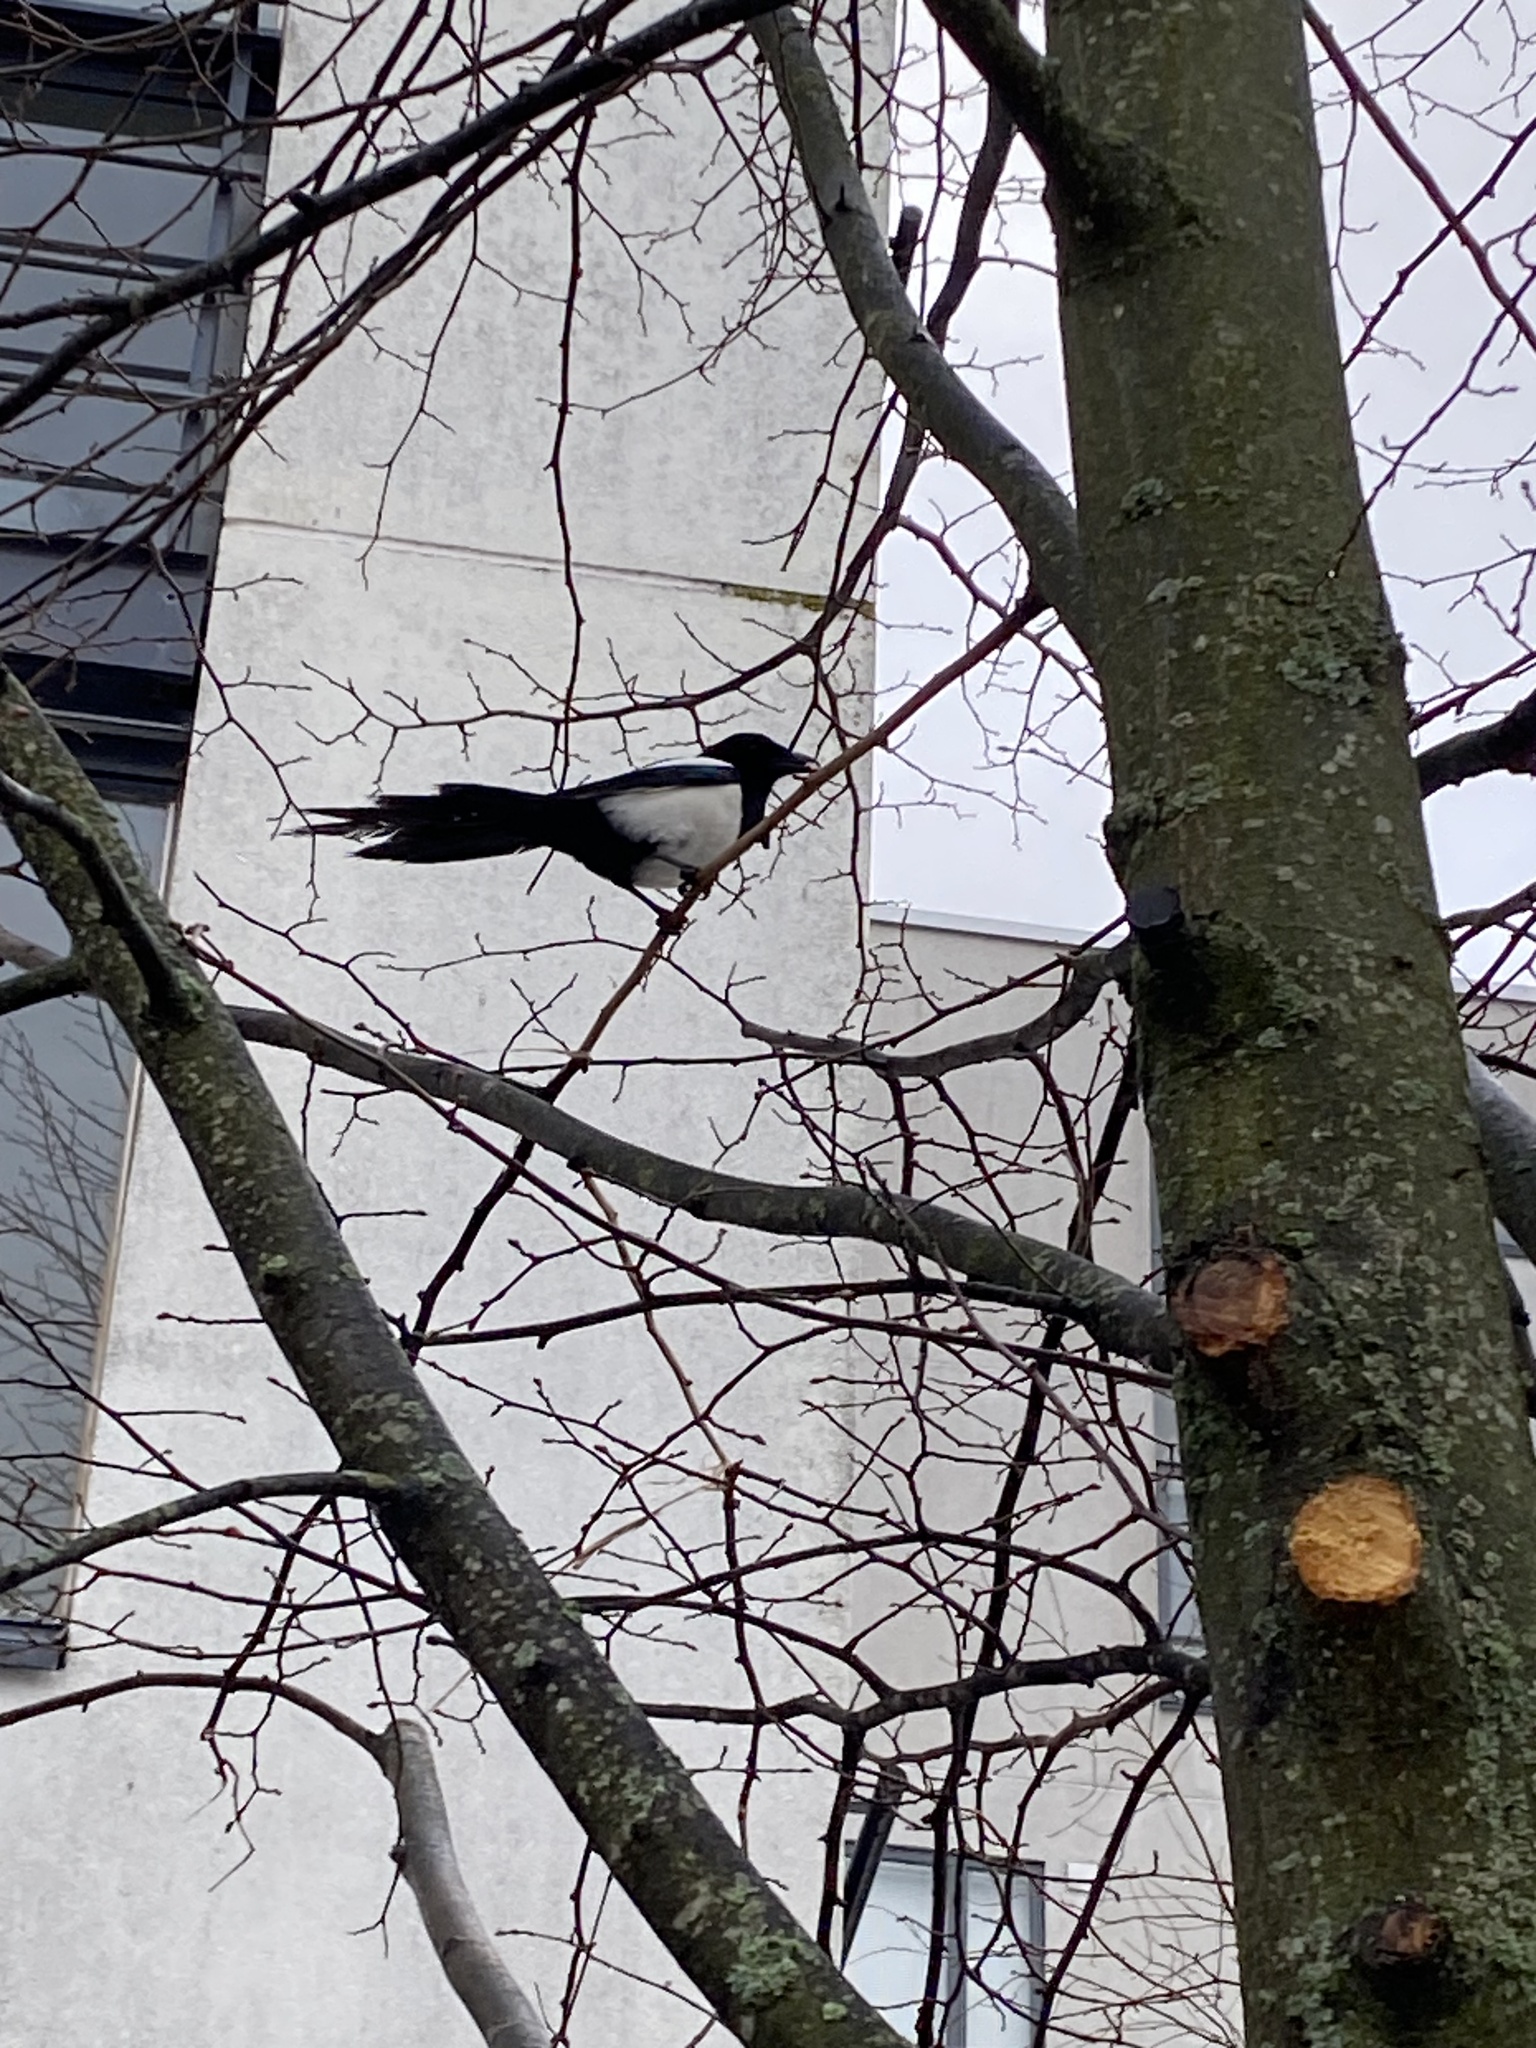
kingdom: Animalia
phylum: Chordata
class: Aves
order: Passeriformes
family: Corvidae
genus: Pica
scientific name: Pica pica
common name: Eurasian magpie
